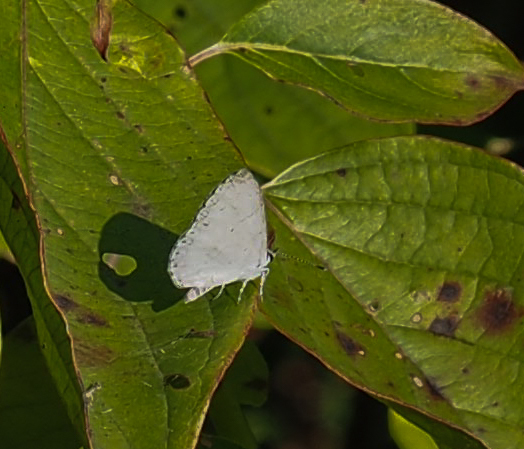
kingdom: Animalia
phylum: Arthropoda
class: Insecta
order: Lepidoptera
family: Lycaenidae
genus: Cyaniris
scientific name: Cyaniris neglecta
